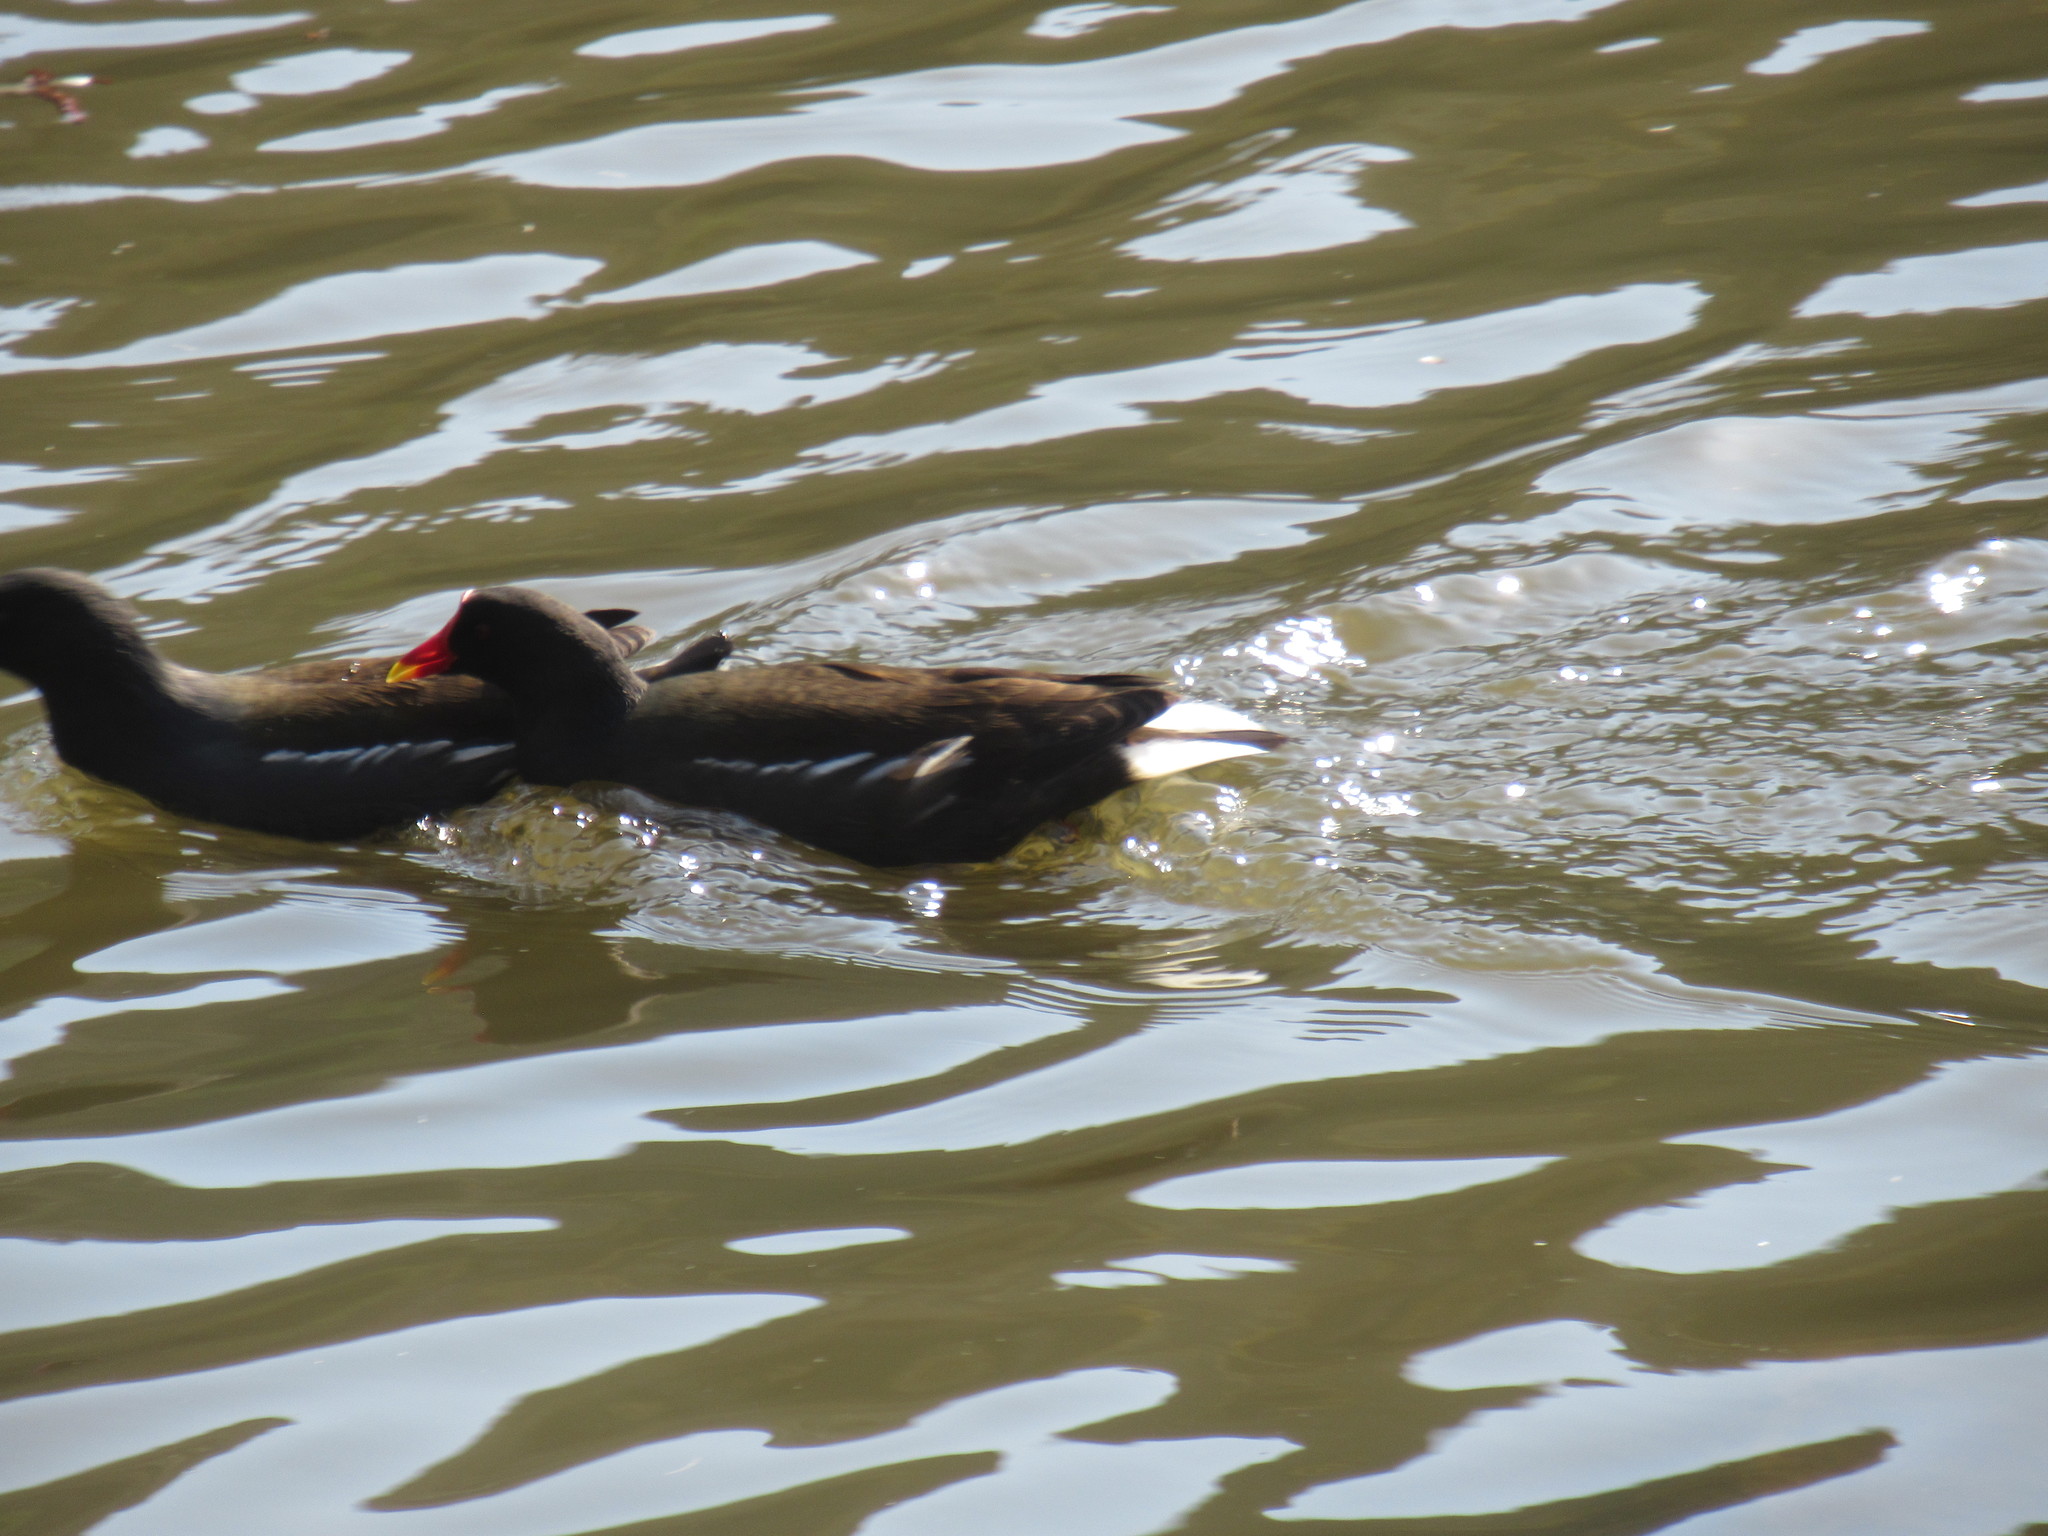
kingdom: Animalia
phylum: Chordata
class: Aves
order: Gruiformes
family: Rallidae
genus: Gallinula
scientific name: Gallinula chloropus
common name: Common moorhen
